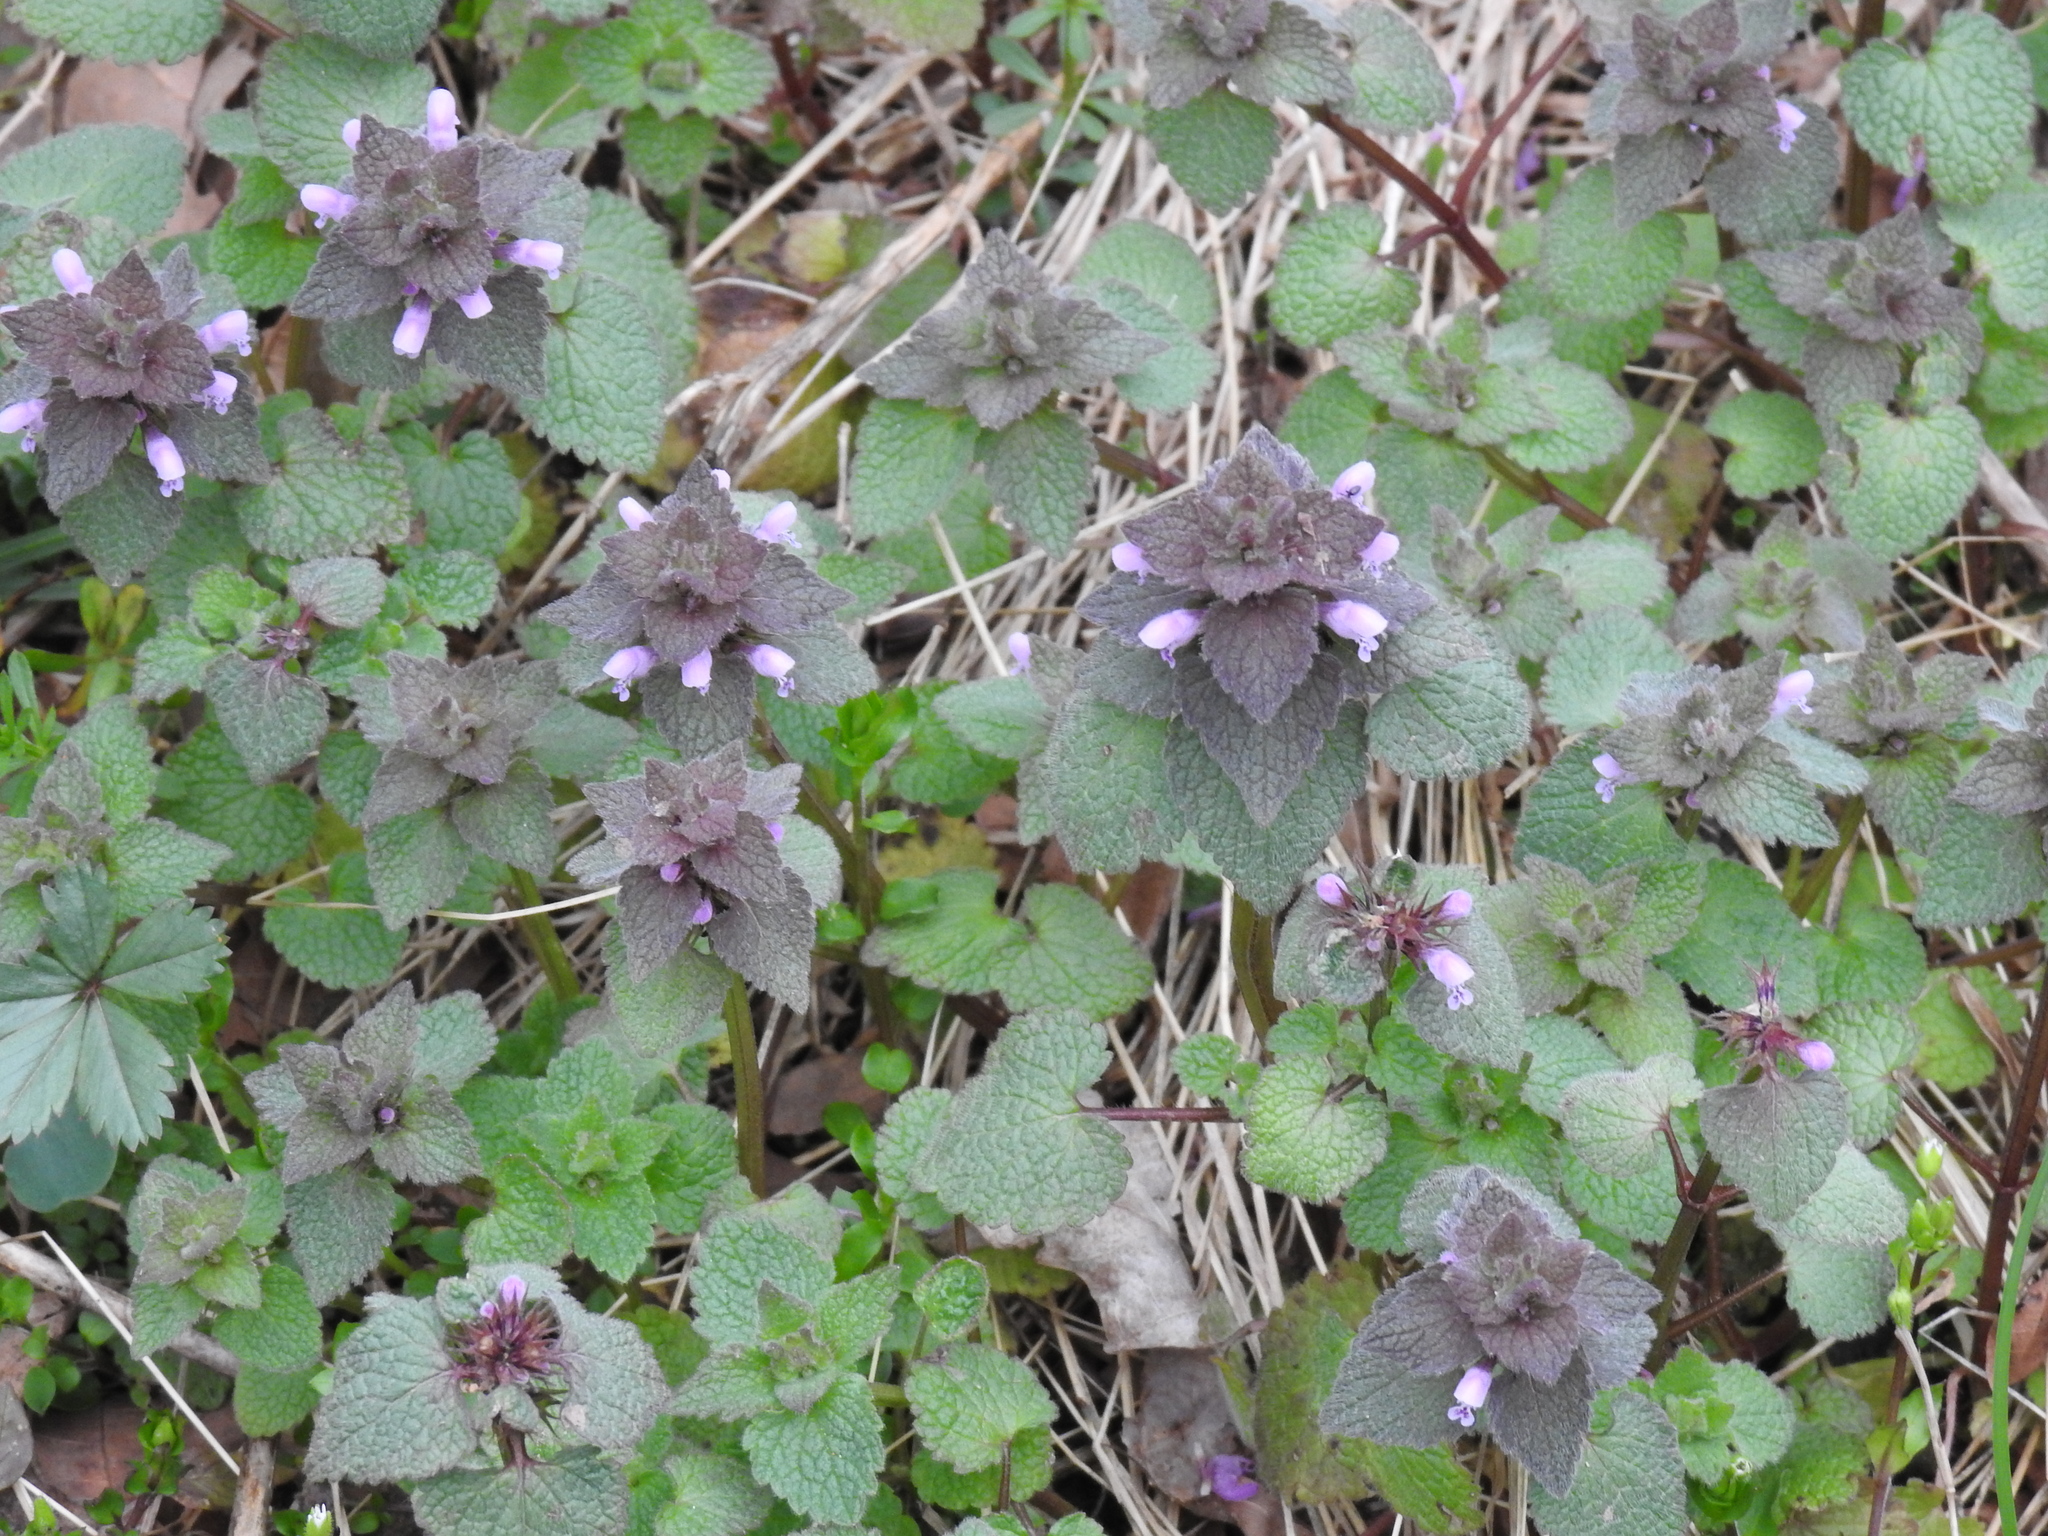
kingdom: Plantae
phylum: Tracheophyta
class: Magnoliopsida
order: Lamiales
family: Lamiaceae
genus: Lamium
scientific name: Lamium purpureum
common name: Red dead-nettle
